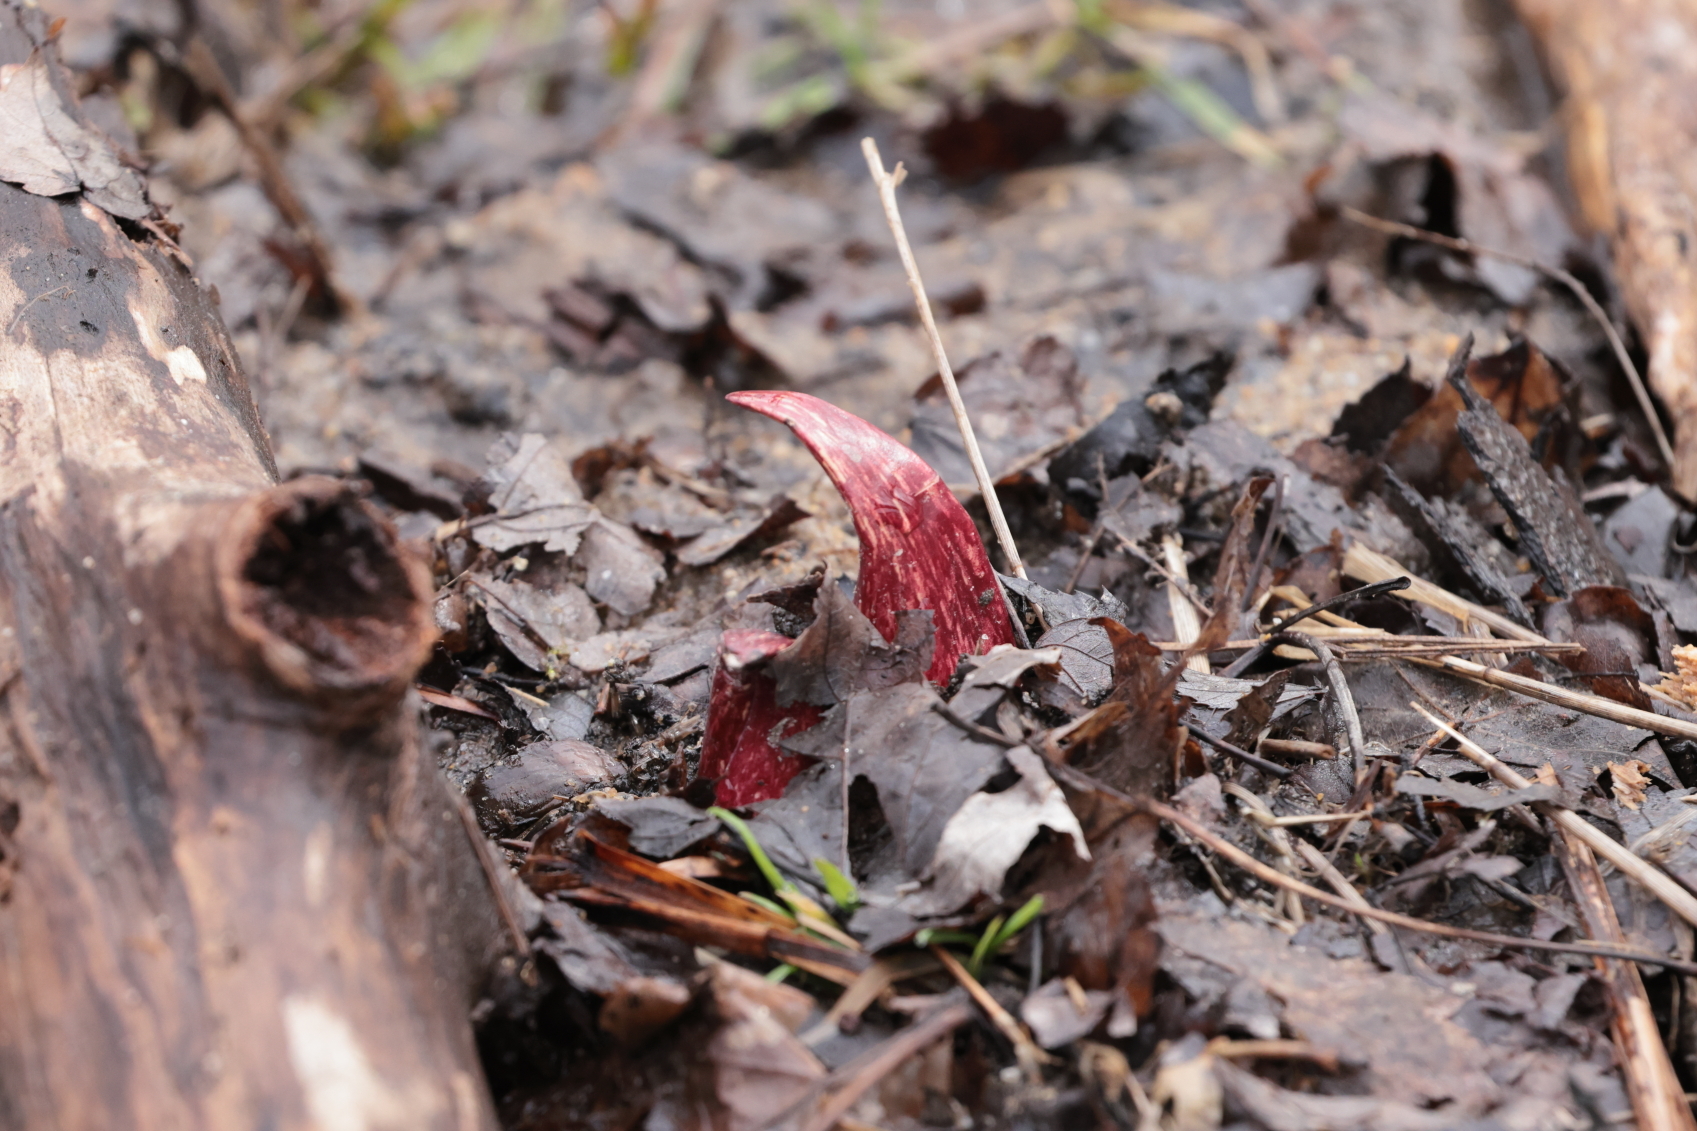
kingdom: Plantae
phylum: Tracheophyta
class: Liliopsida
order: Alismatales
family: Araceae
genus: Symplocarpus
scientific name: Symplocarpus foetidus
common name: Eastern skunk cabbage
